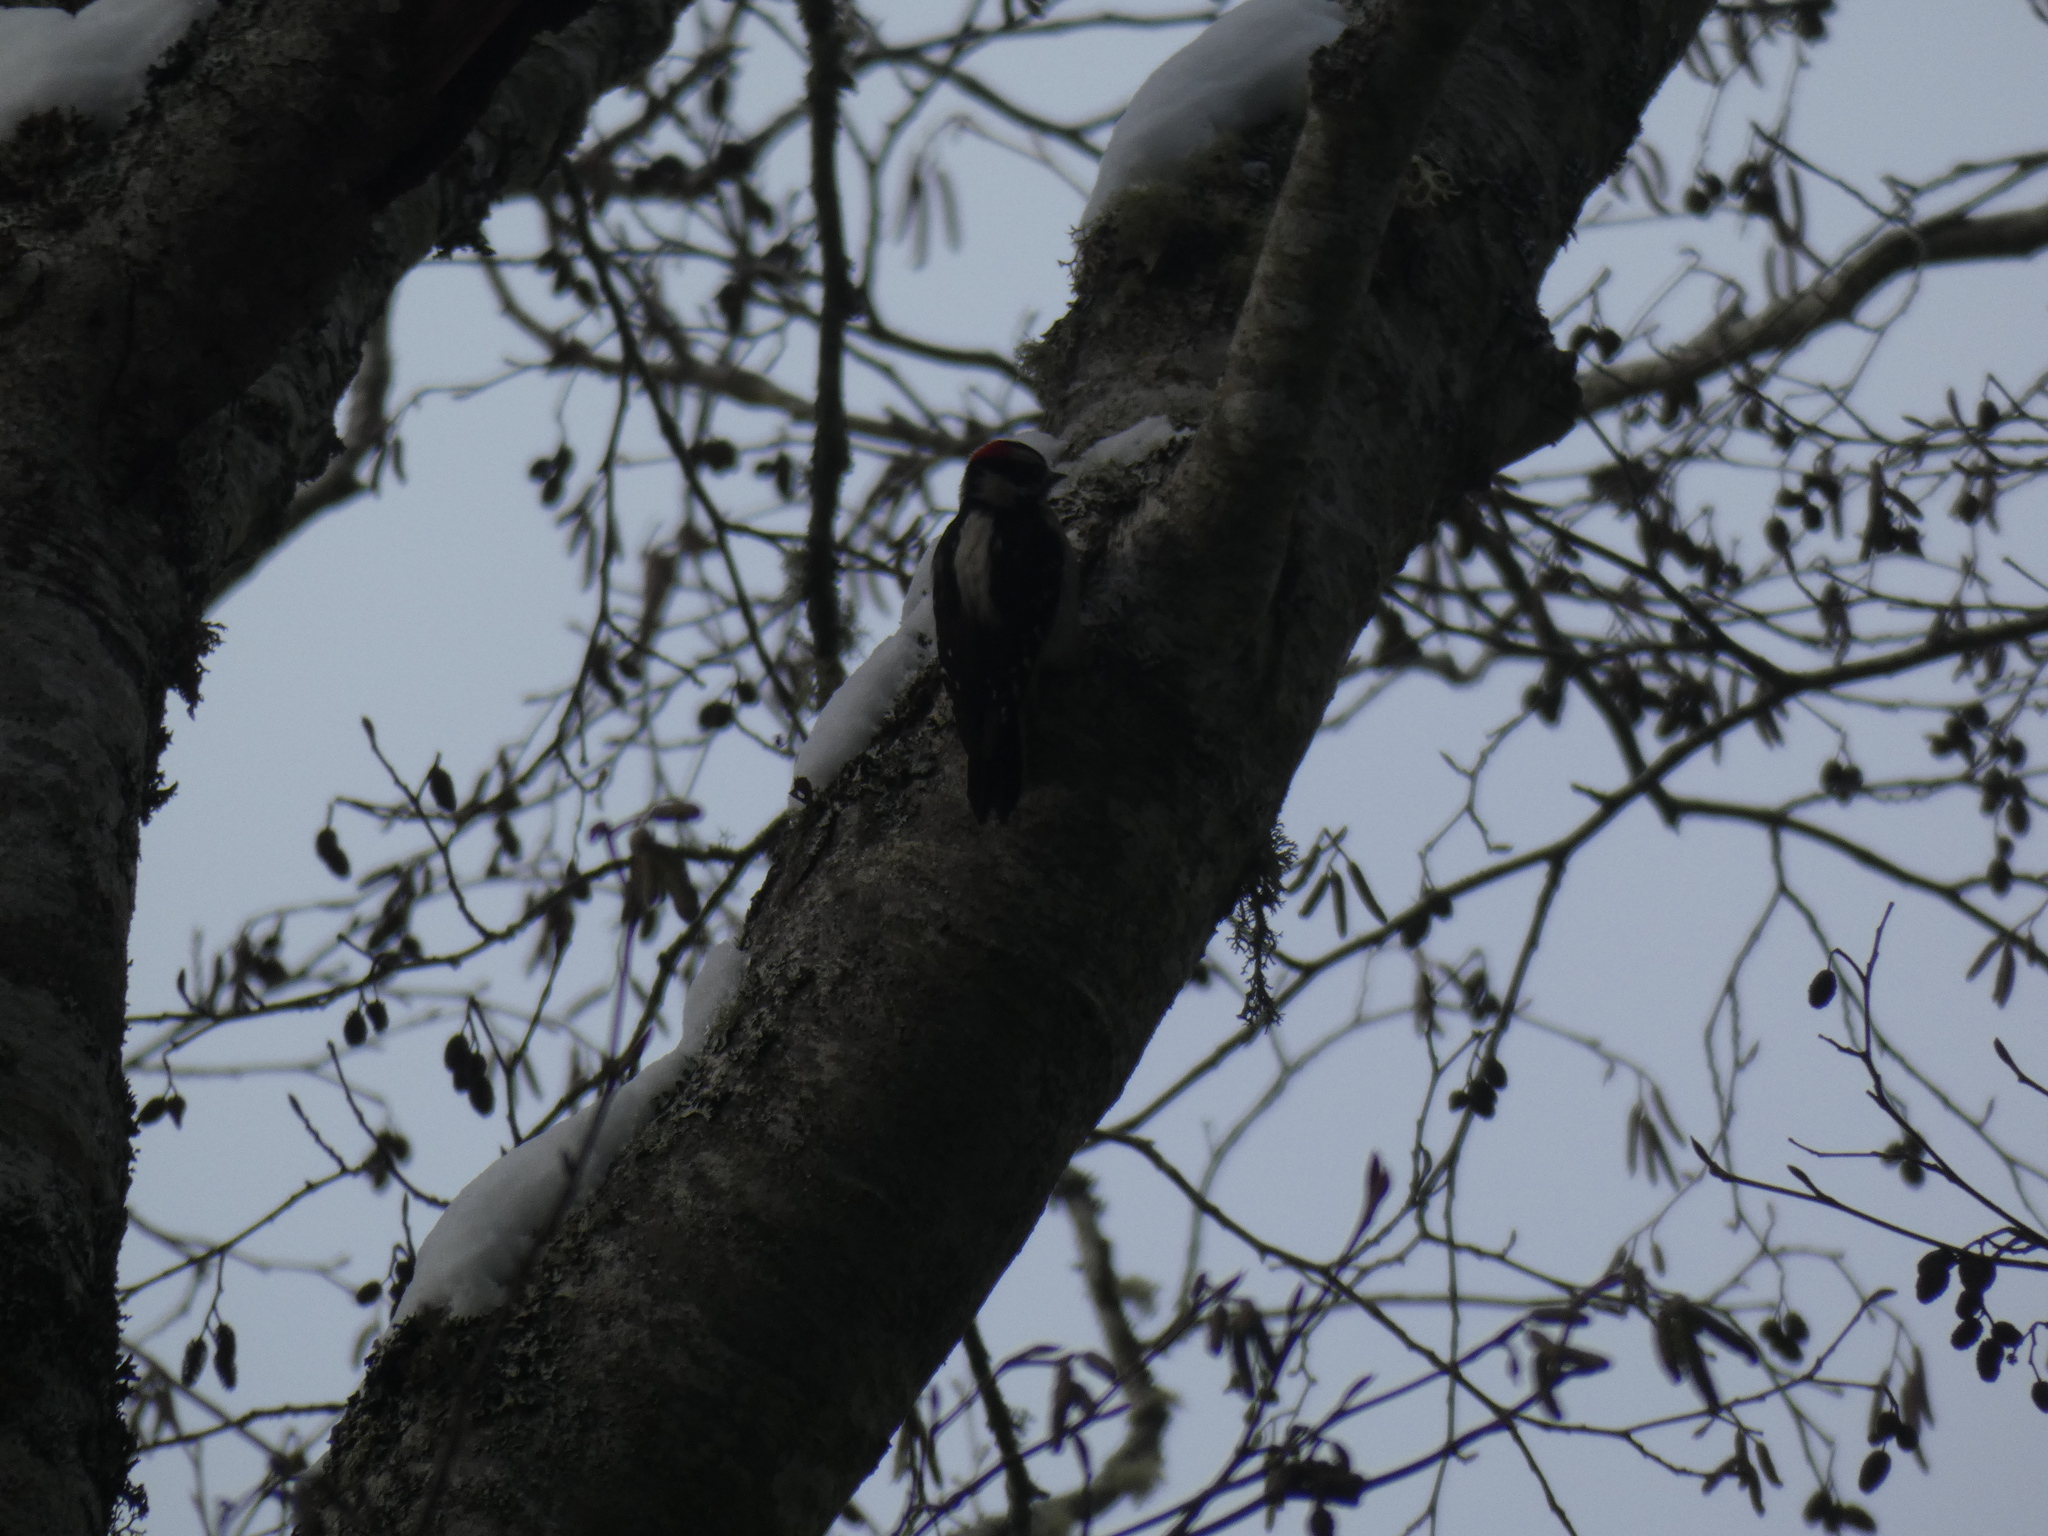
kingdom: Animalia
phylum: Chordata
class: Aves
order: Piciformes
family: Picidae
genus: Dryobates
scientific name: Dryobates pubescens
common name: Downy woodpecker
